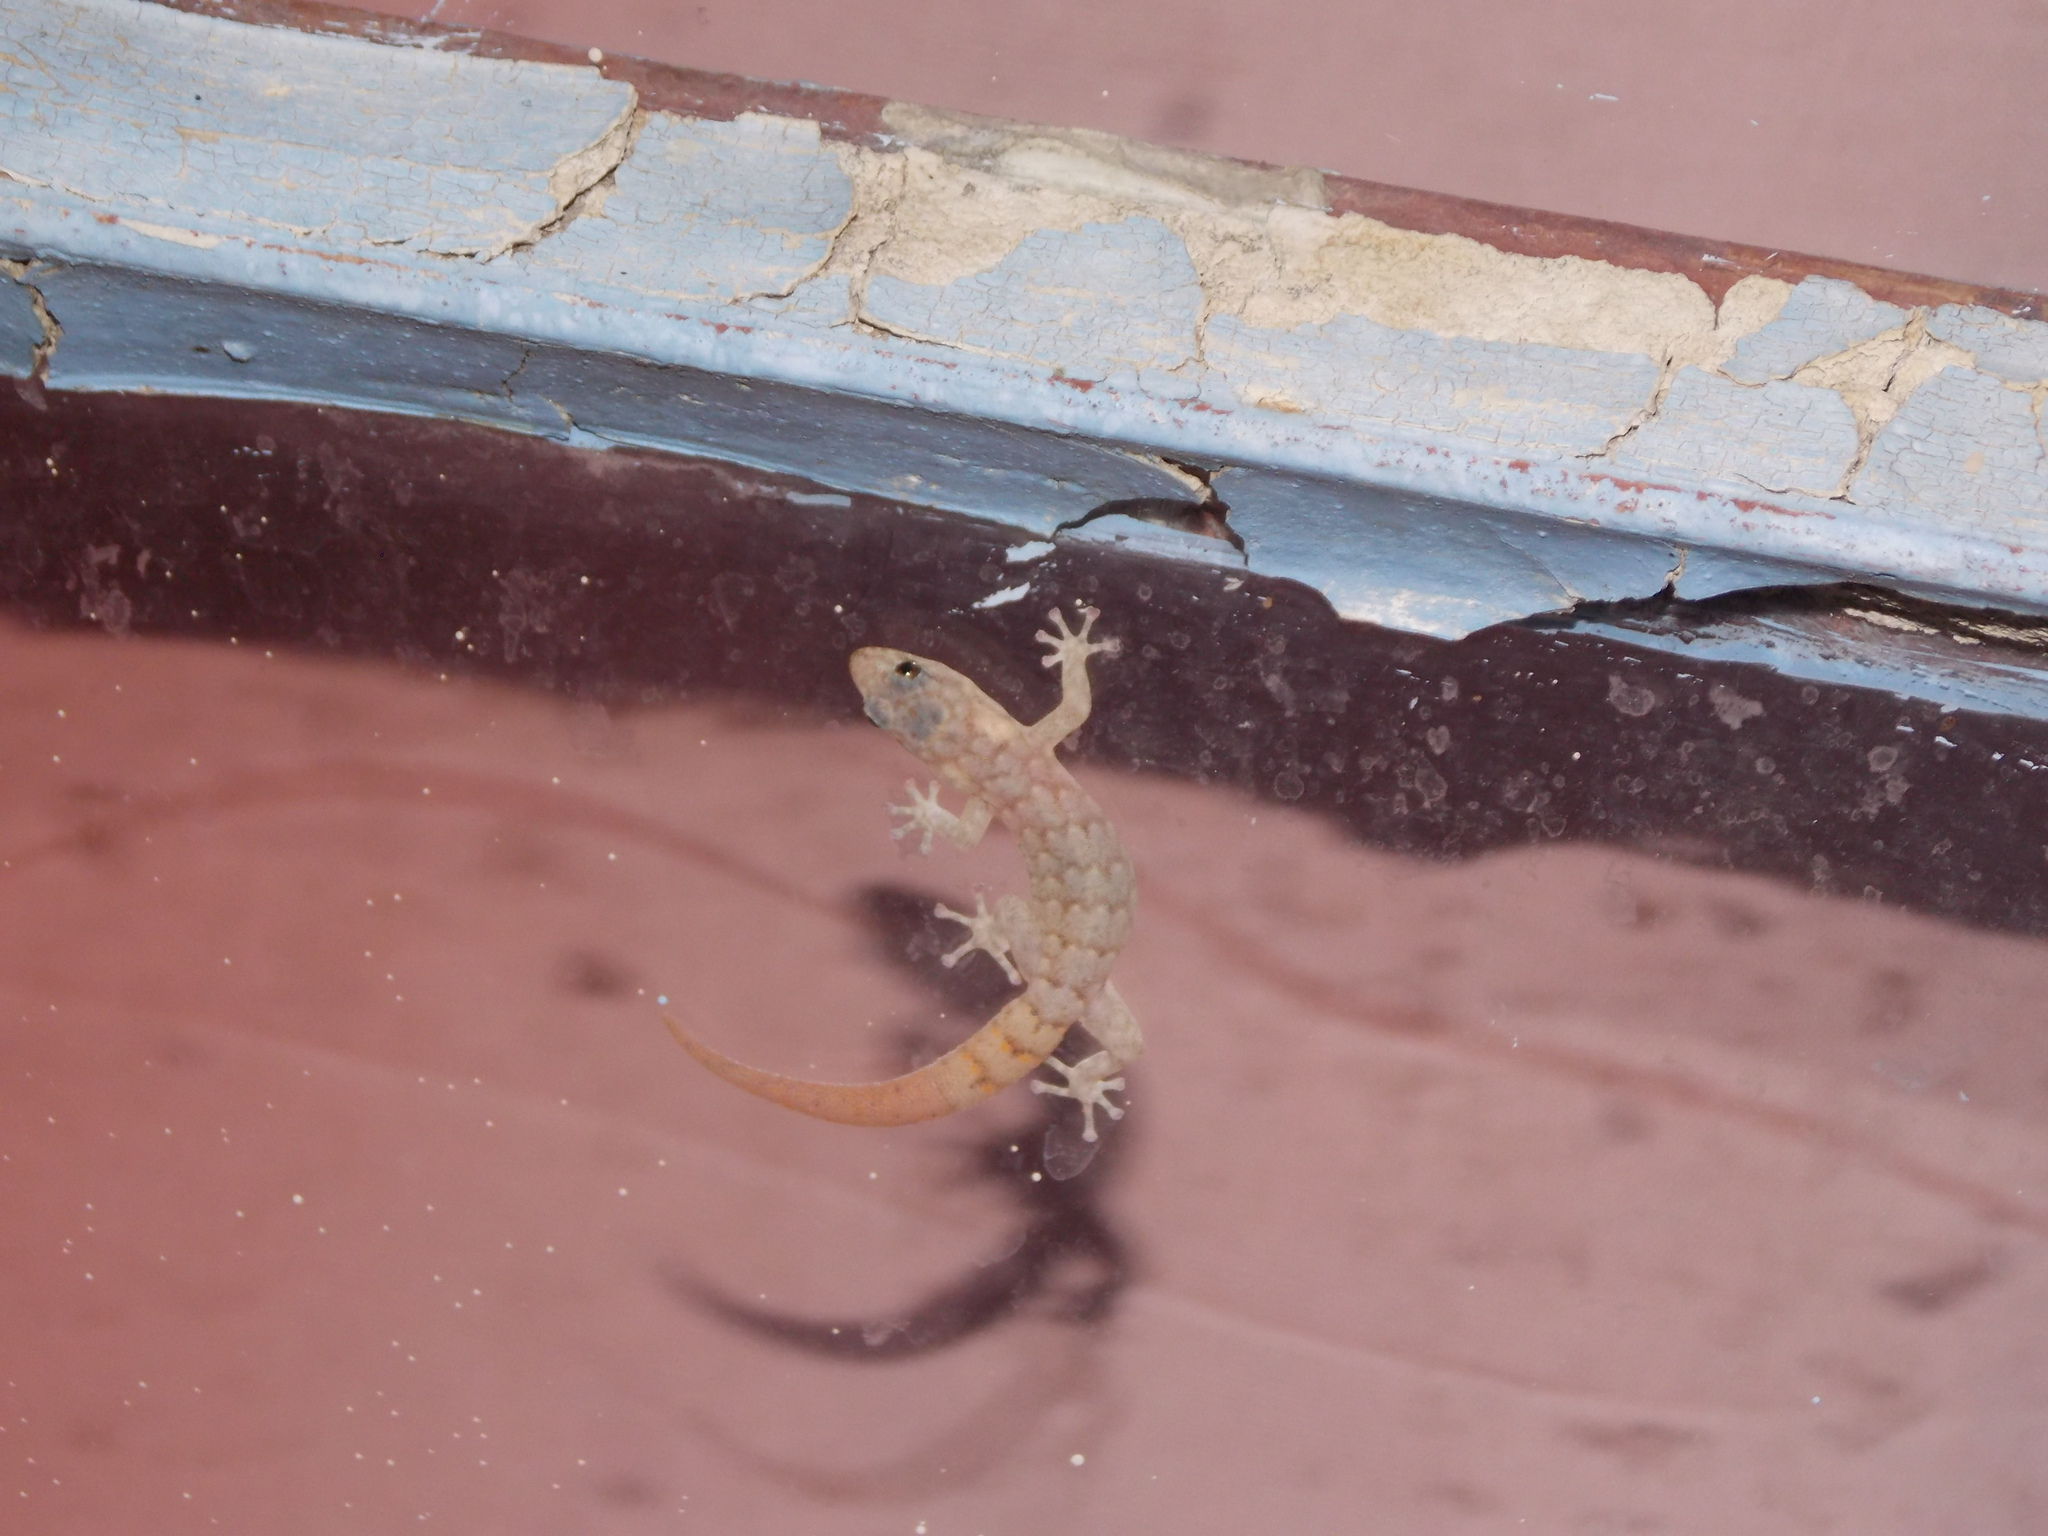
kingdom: Animalia
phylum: Chordata
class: Squamata
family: Gekkonidae
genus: Goggia
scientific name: Goggia hexapora
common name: Cedarberg dwarf leaf-toed gecko
